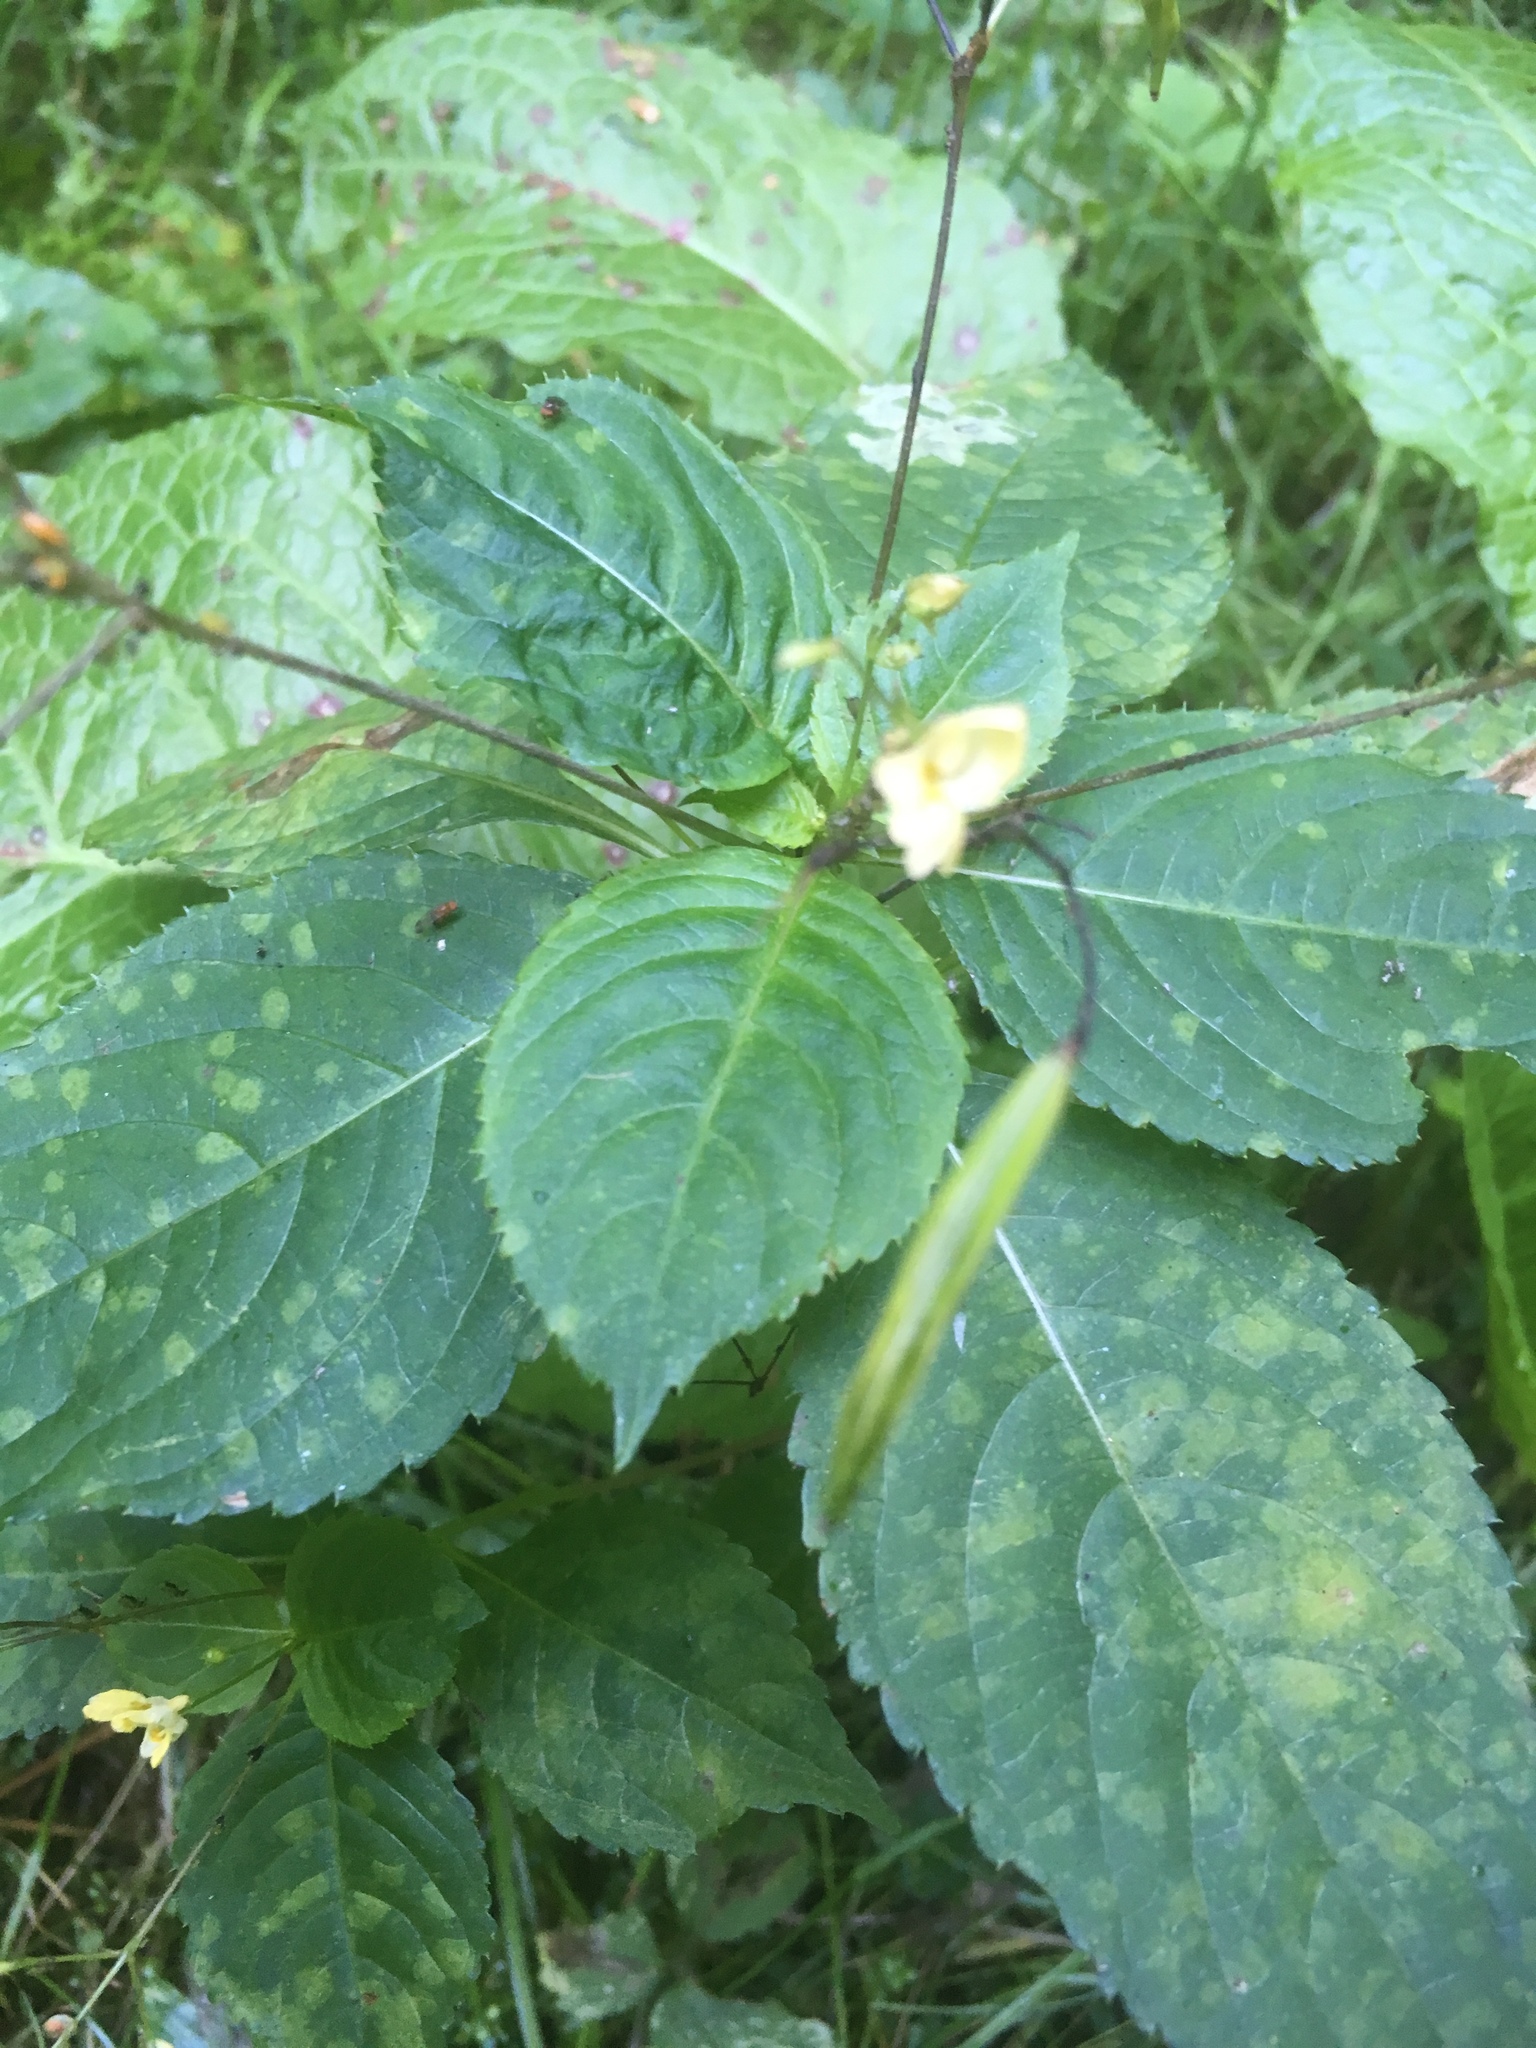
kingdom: Plantae
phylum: Tracheophyta
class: Magnoliopsida
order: Ericales
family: Balsaminaceae
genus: Impatiens
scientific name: Impatiens parviflora
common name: Small balsam
